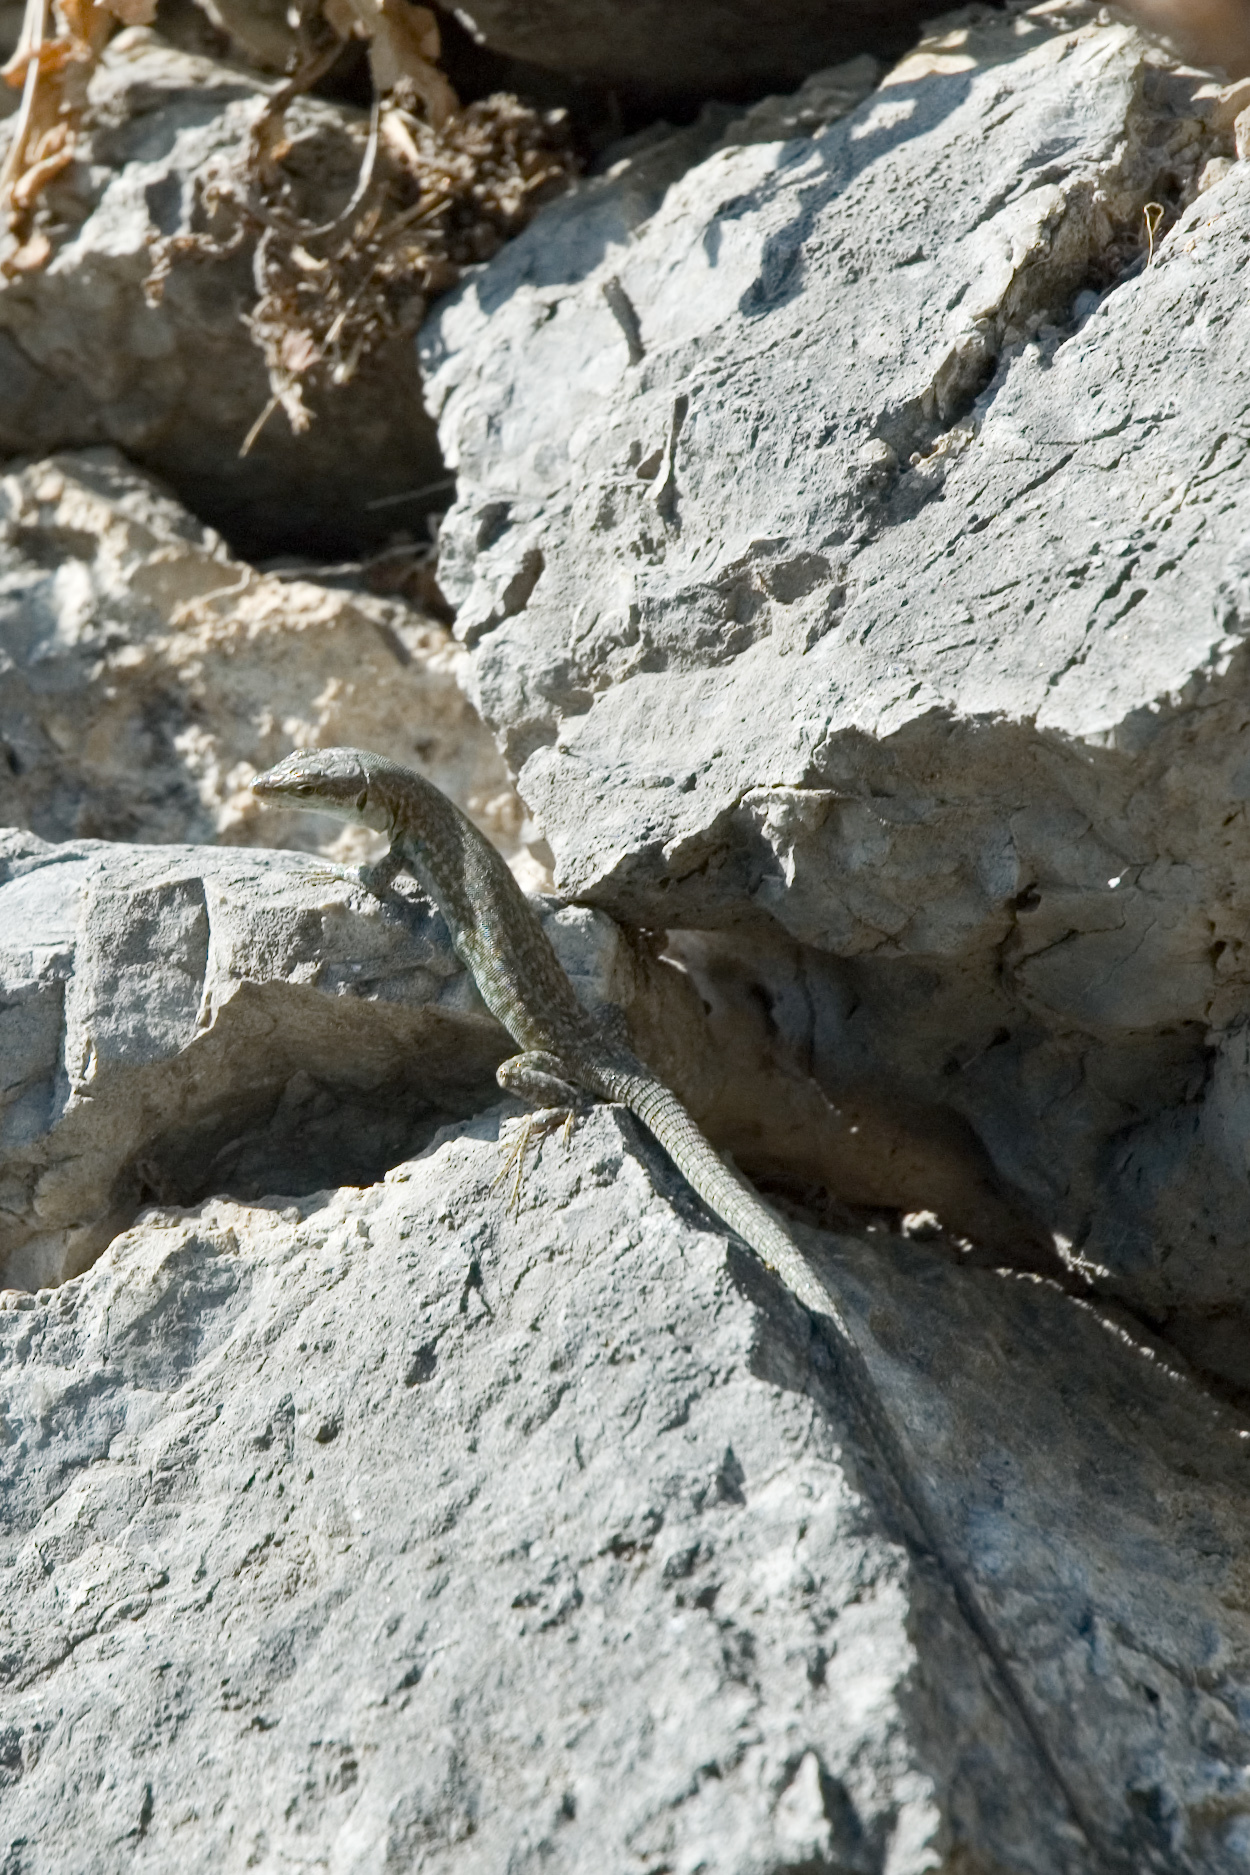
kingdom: Animalia
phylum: Chordata
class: Squamata
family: Lacertidae
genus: Podarcis
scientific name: Podarcis siculus
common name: Italian wall lizard
